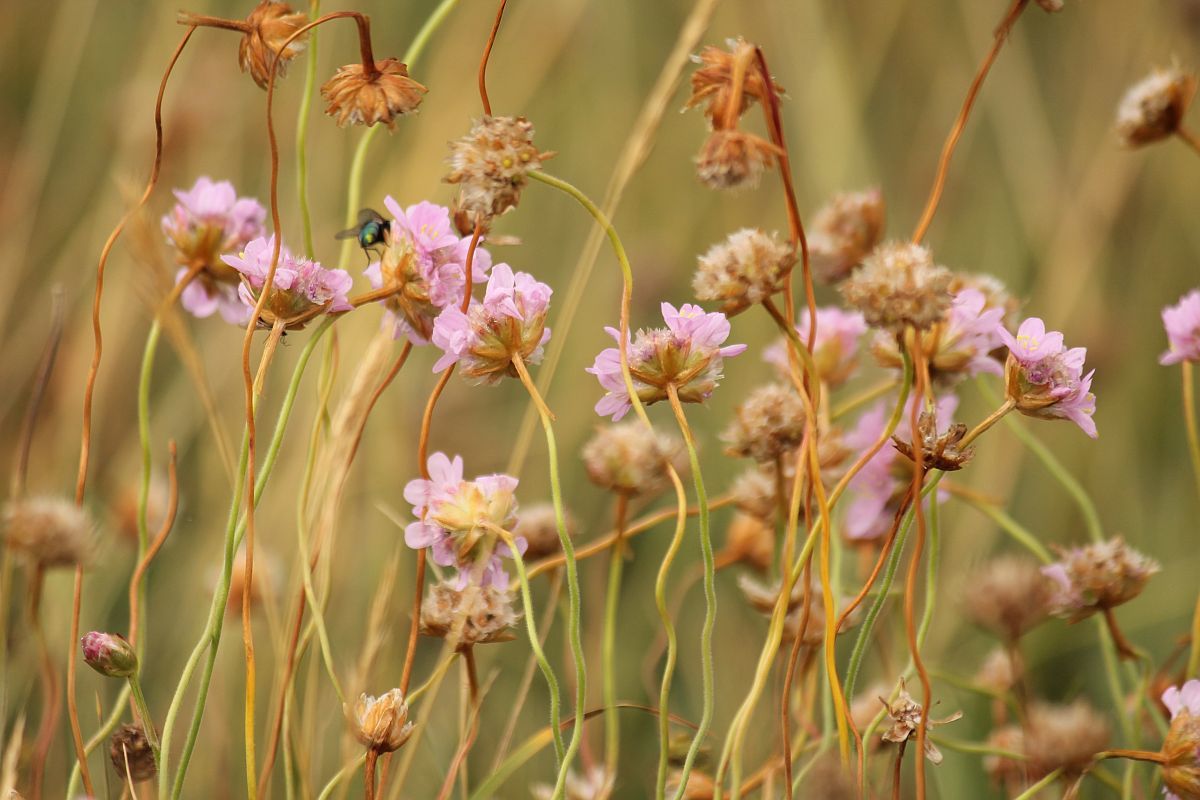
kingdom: Plantae
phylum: Tracheophyta
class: Magnoliopsida
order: Caryophyllales
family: Plumbaginaceae
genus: Armeria
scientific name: Armeria maritima
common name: Thrift
